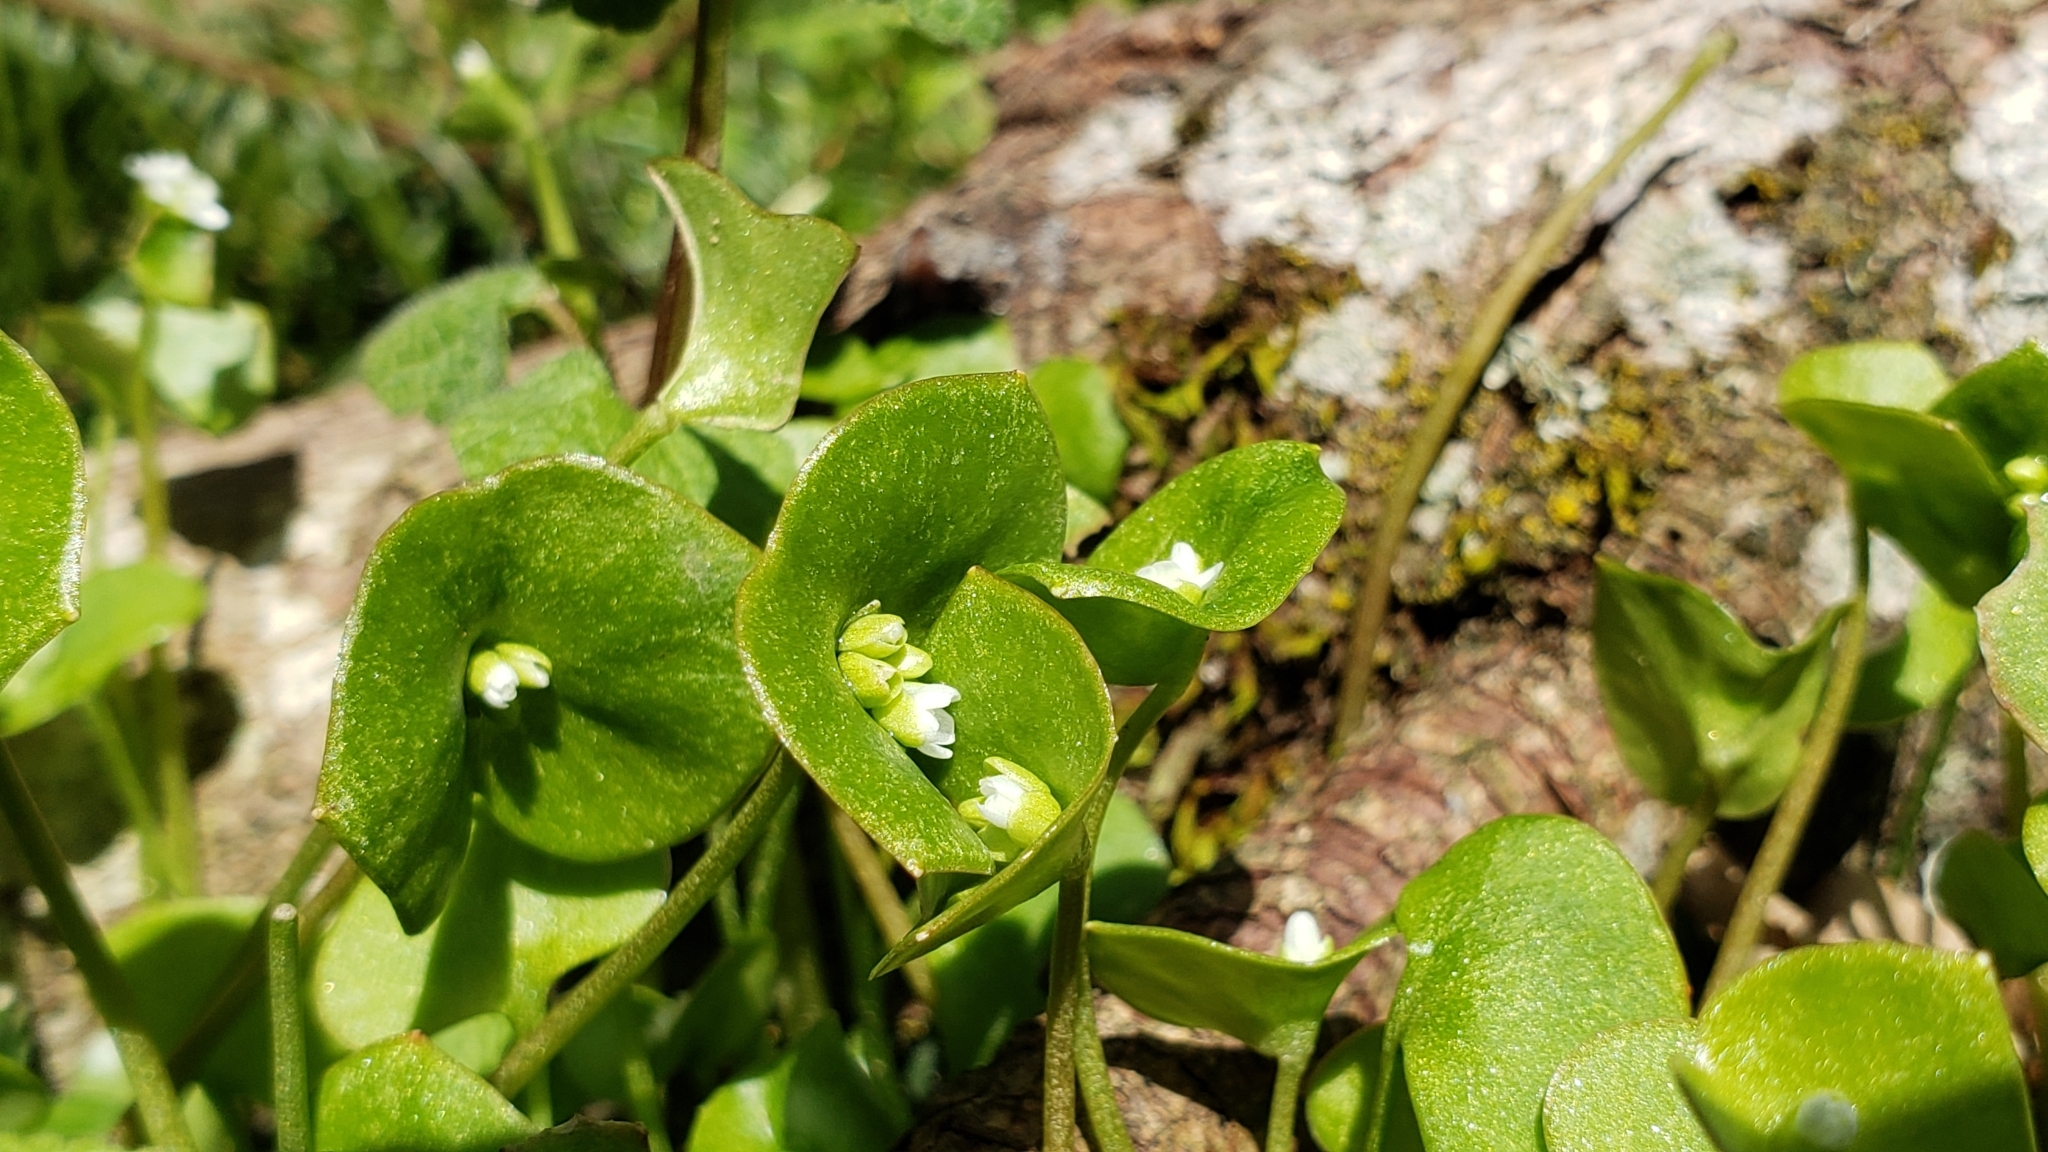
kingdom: Plantae
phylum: Tracheophyta
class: Magnoliopsida
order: Caryophyllales
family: Montiaceae
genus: Claytonia
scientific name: Claytonia perfoliata
